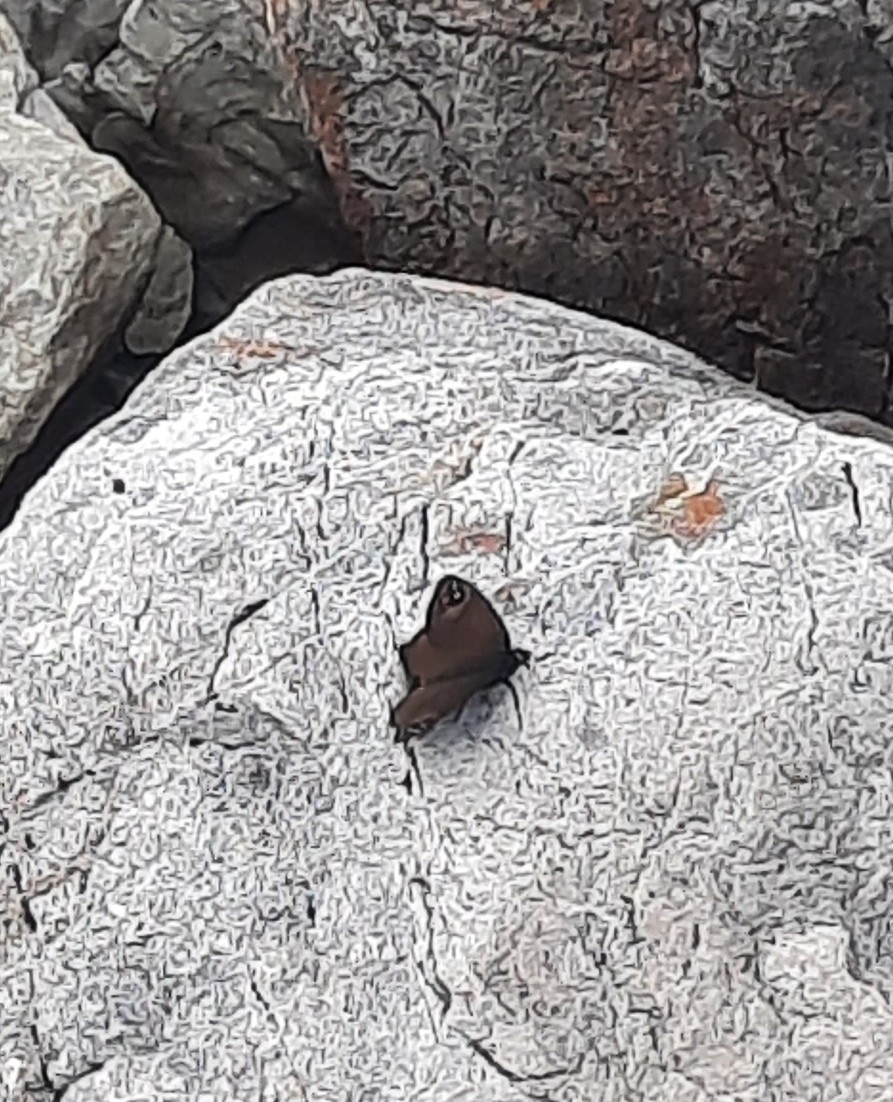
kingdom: Animalia
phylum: Arthropoda
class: Insecta
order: Lepidoptera
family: Nymphalidae
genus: Erebia
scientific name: Erebia Percnodaimon merula
